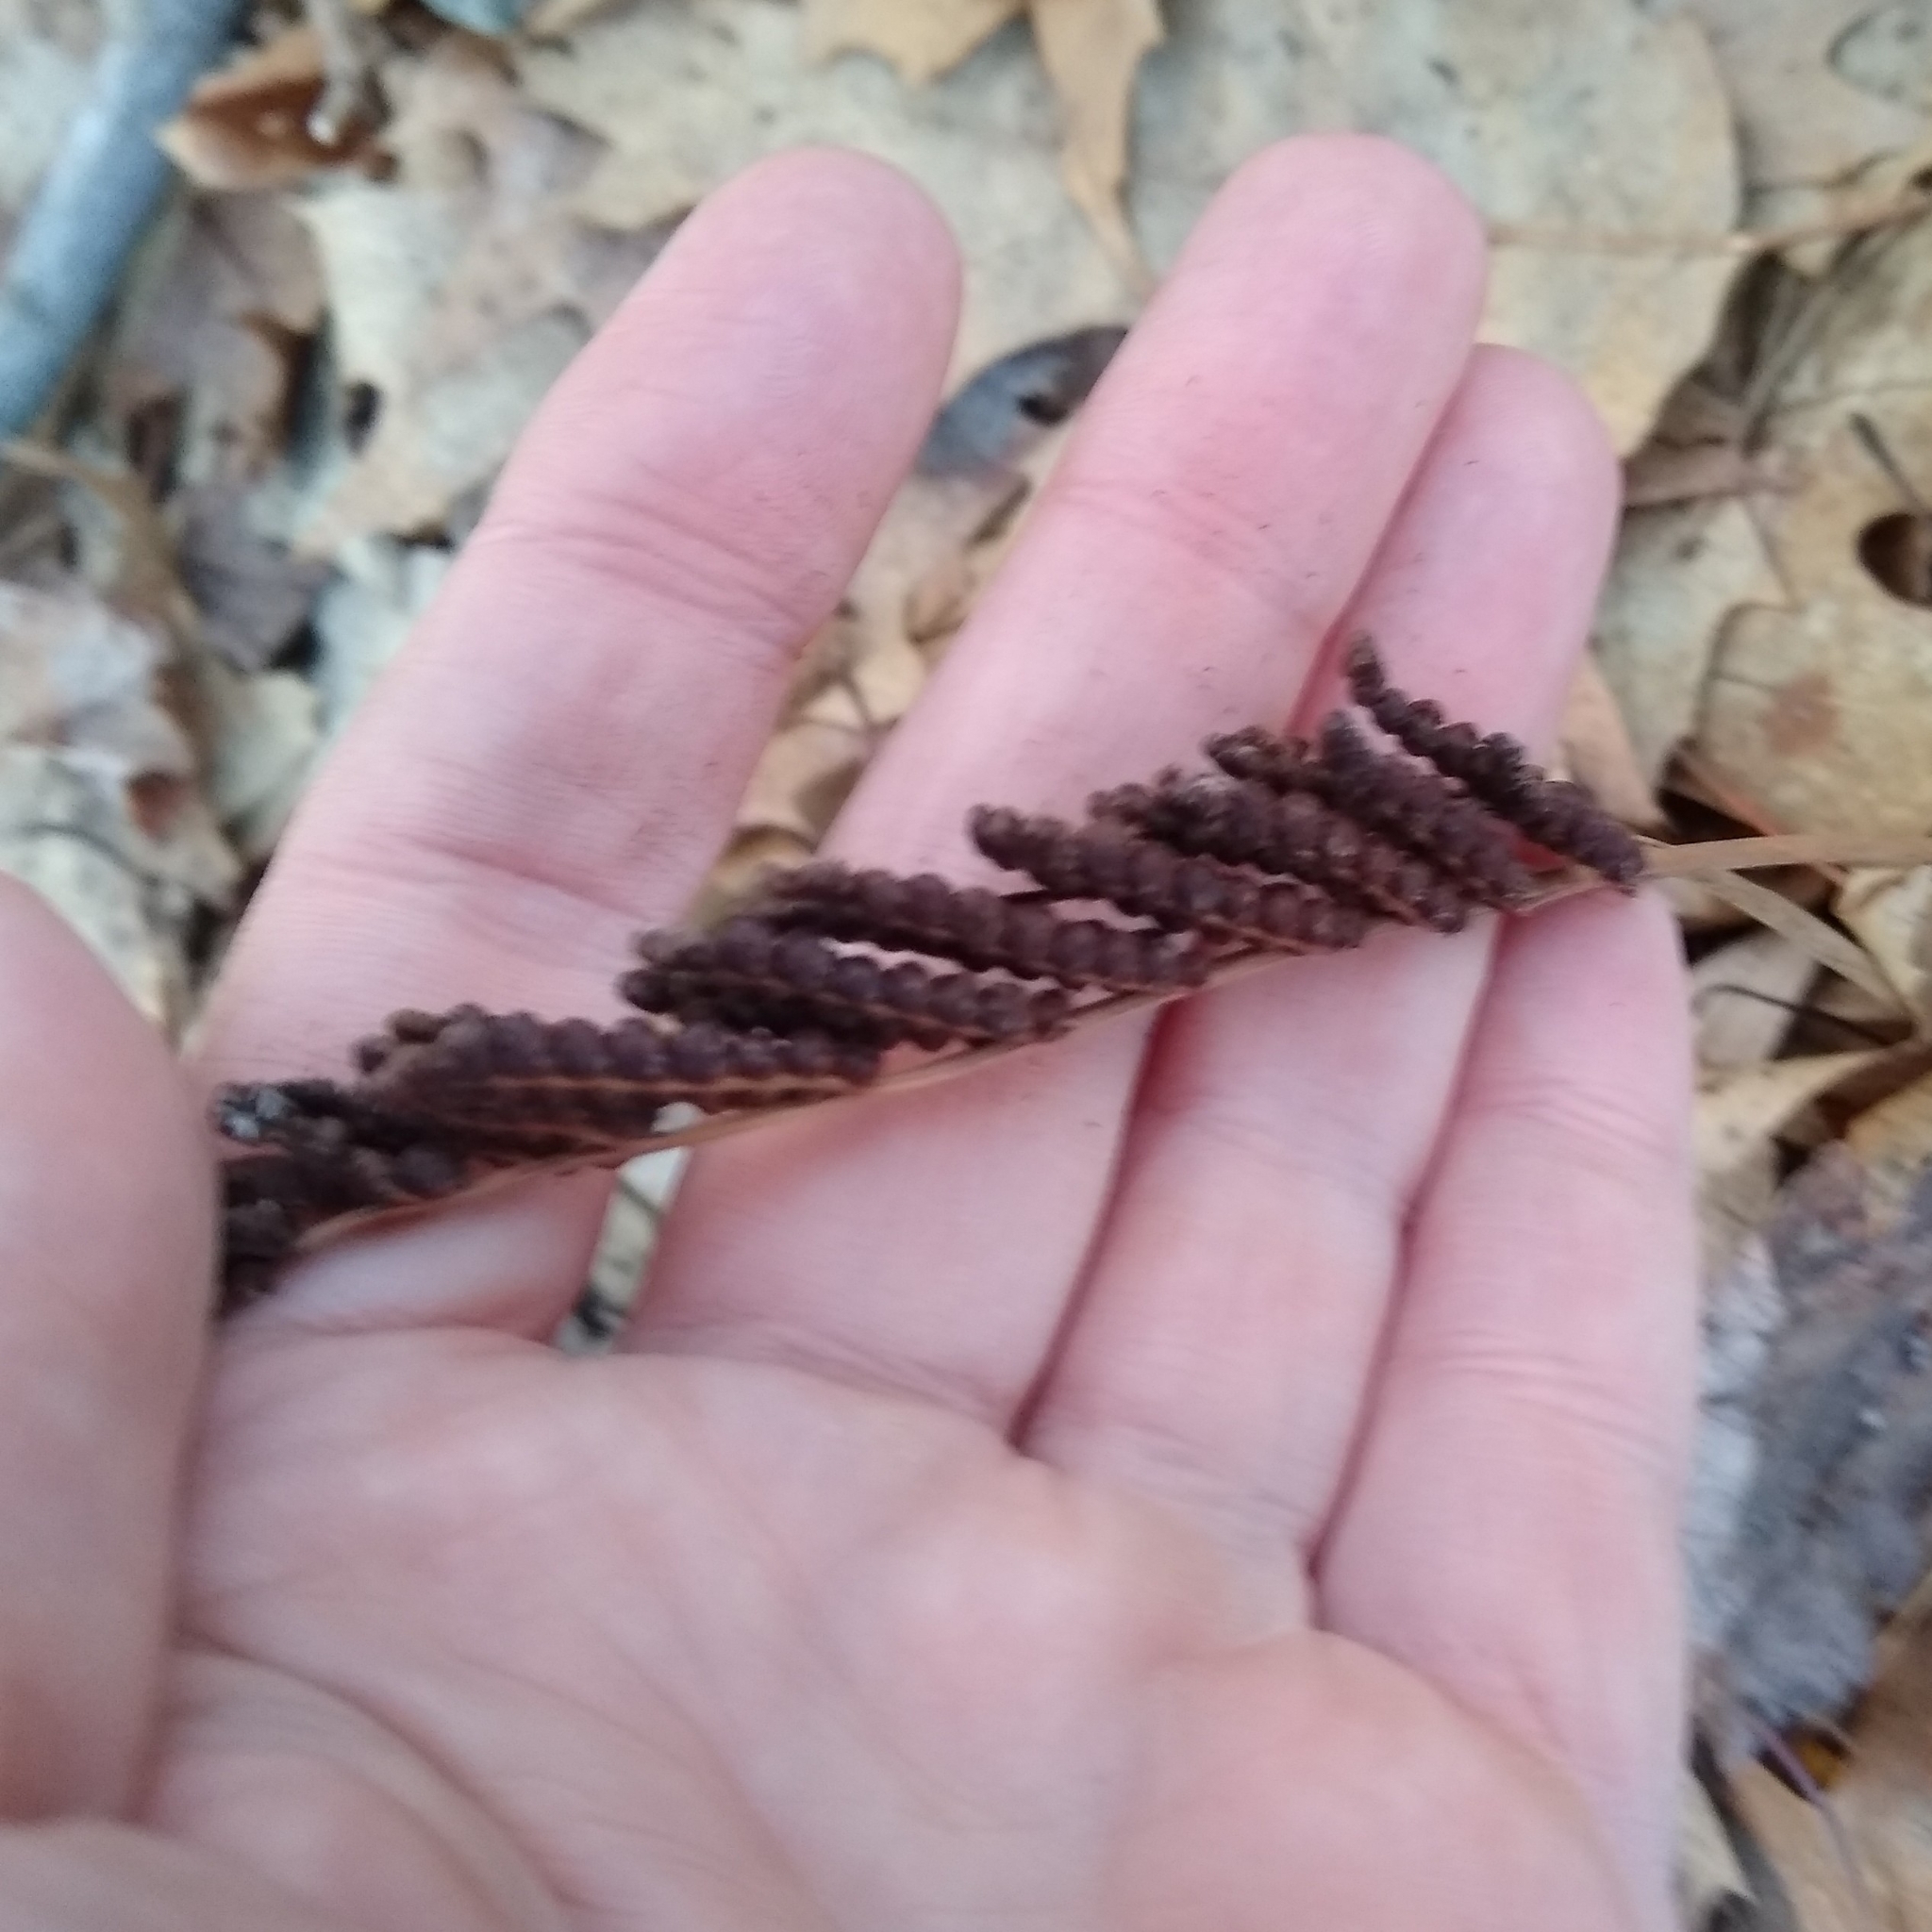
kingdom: Plantae
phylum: Tracheophyta
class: Polypodiopsida
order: Polypodiales
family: Onocleaceae
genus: Onoclea
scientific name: Onoclea sensibilis
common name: Sensitive fern
